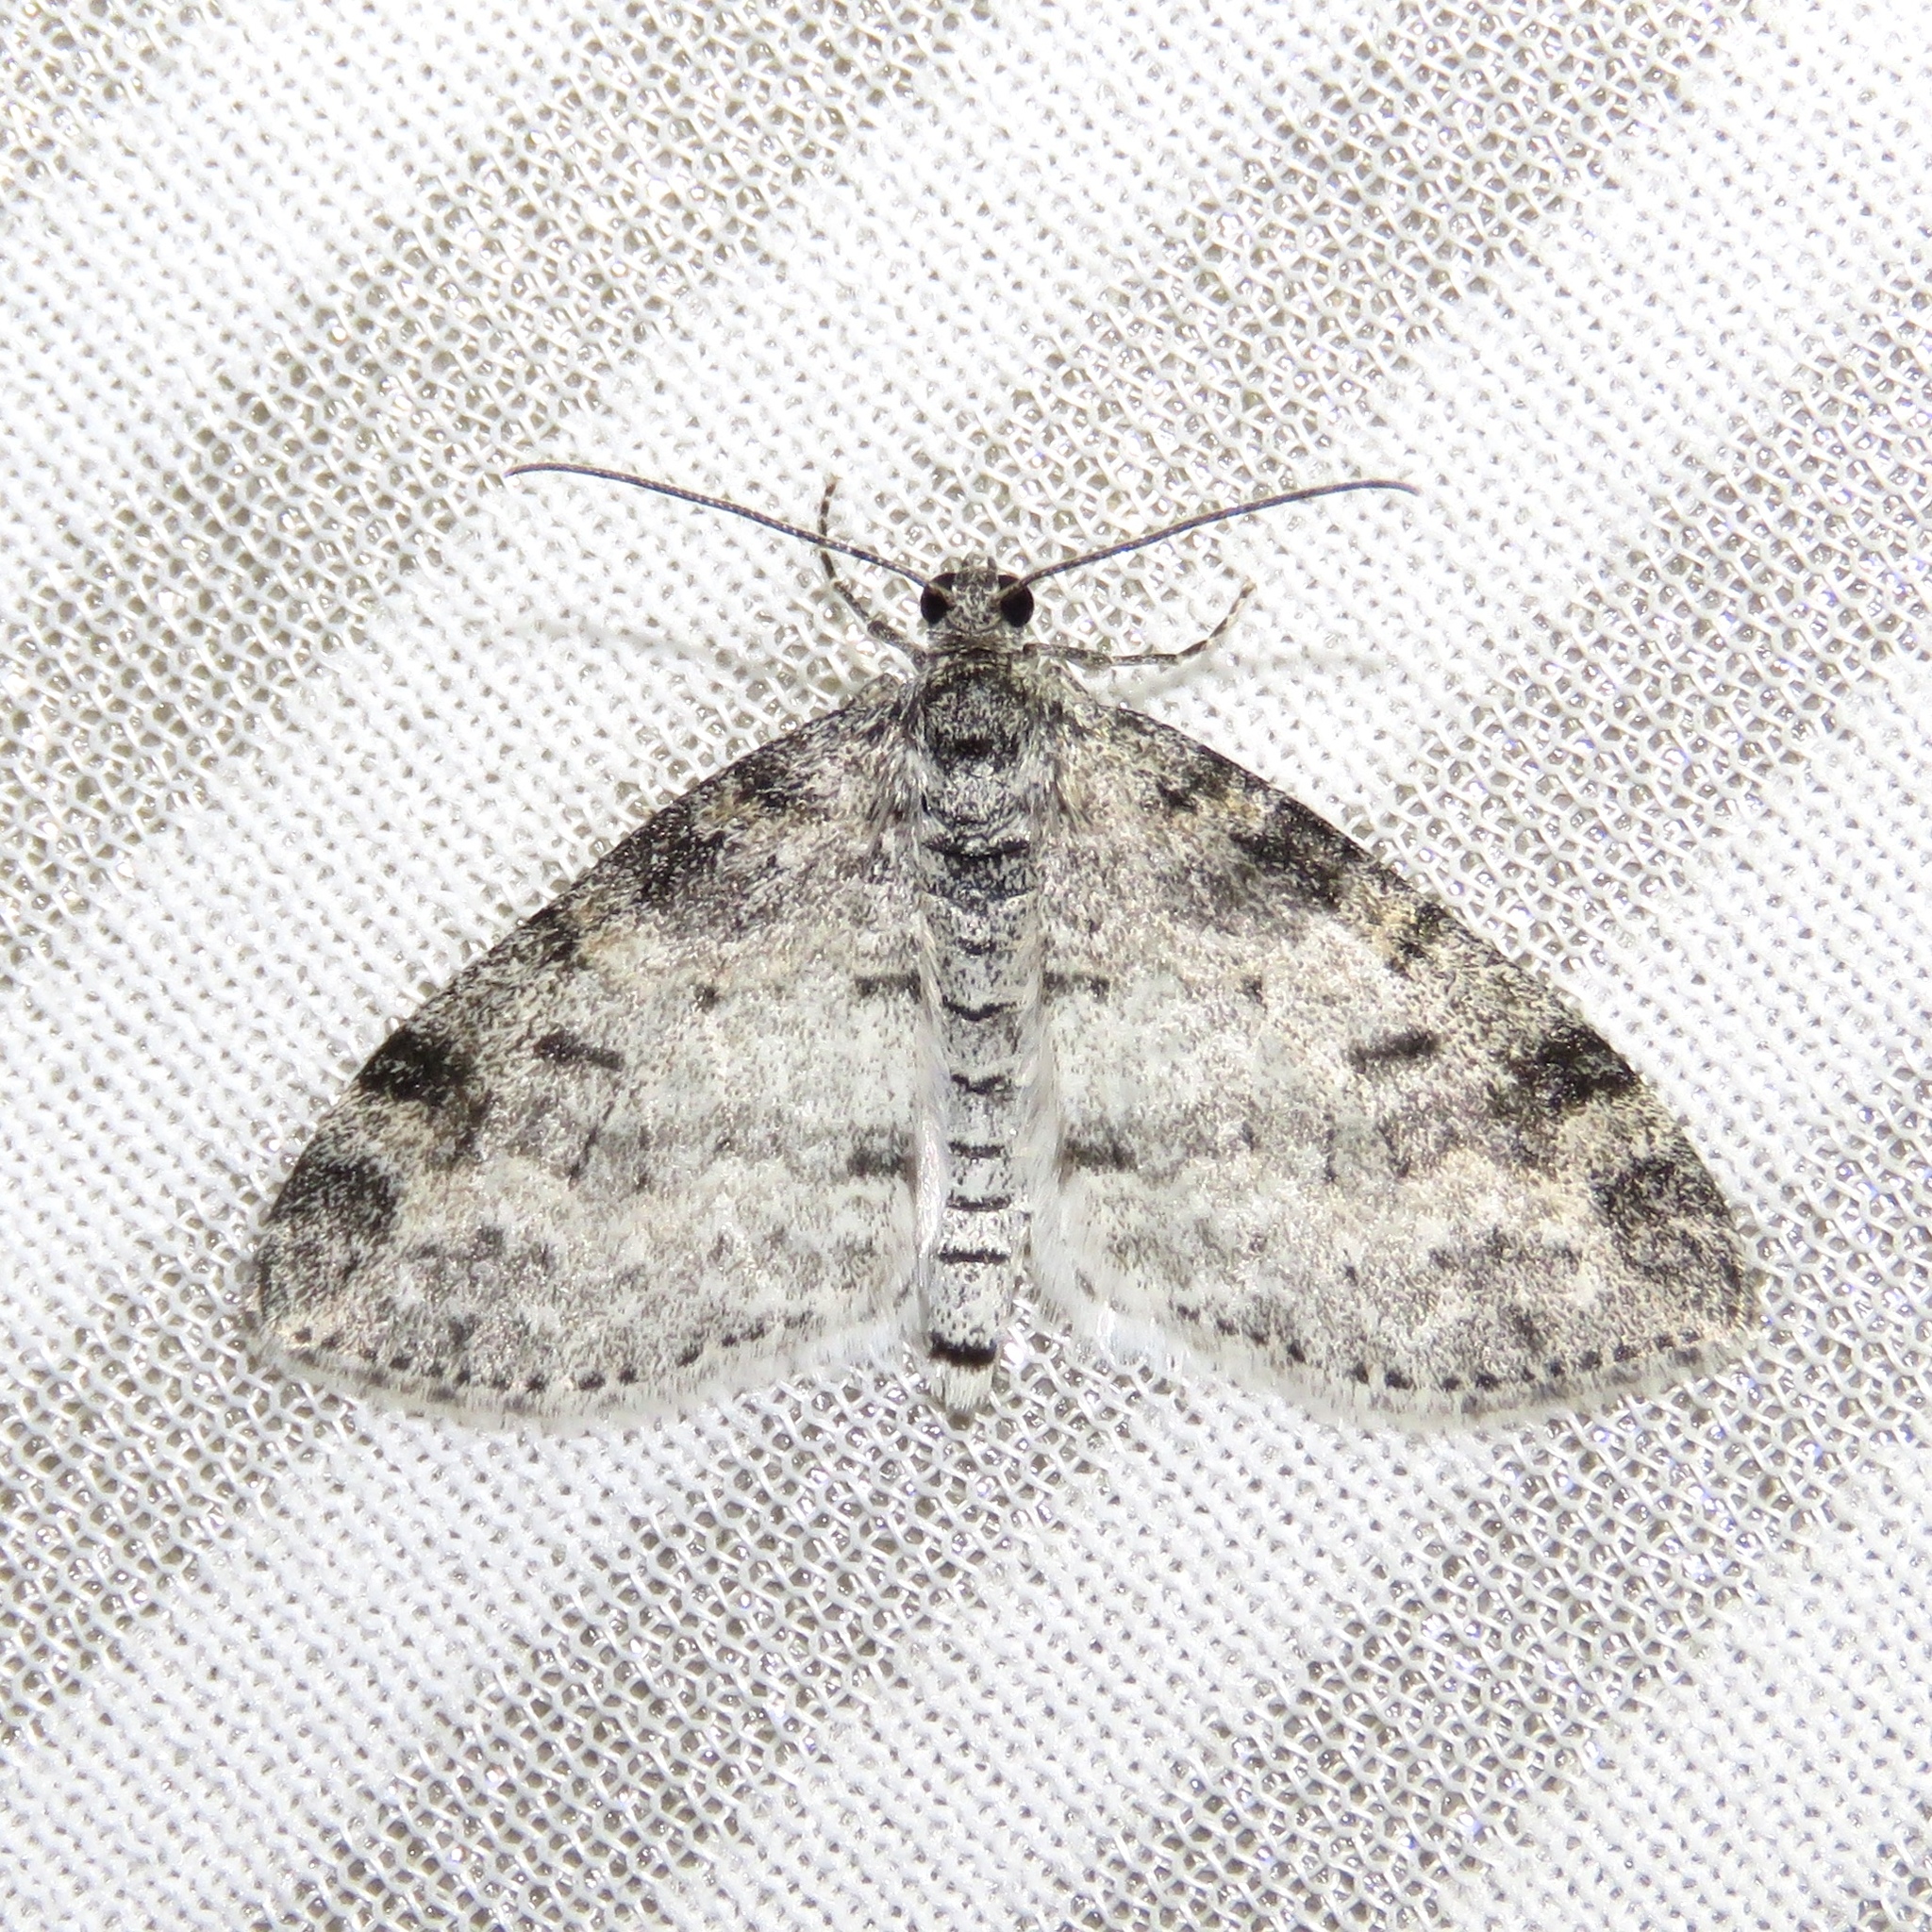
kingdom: Animalia
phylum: Arthropoda
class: Insecta
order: Lepidoptera
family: Geometridae
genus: Lobophora
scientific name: Lobophora nivigerata
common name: Powdered bigwing
